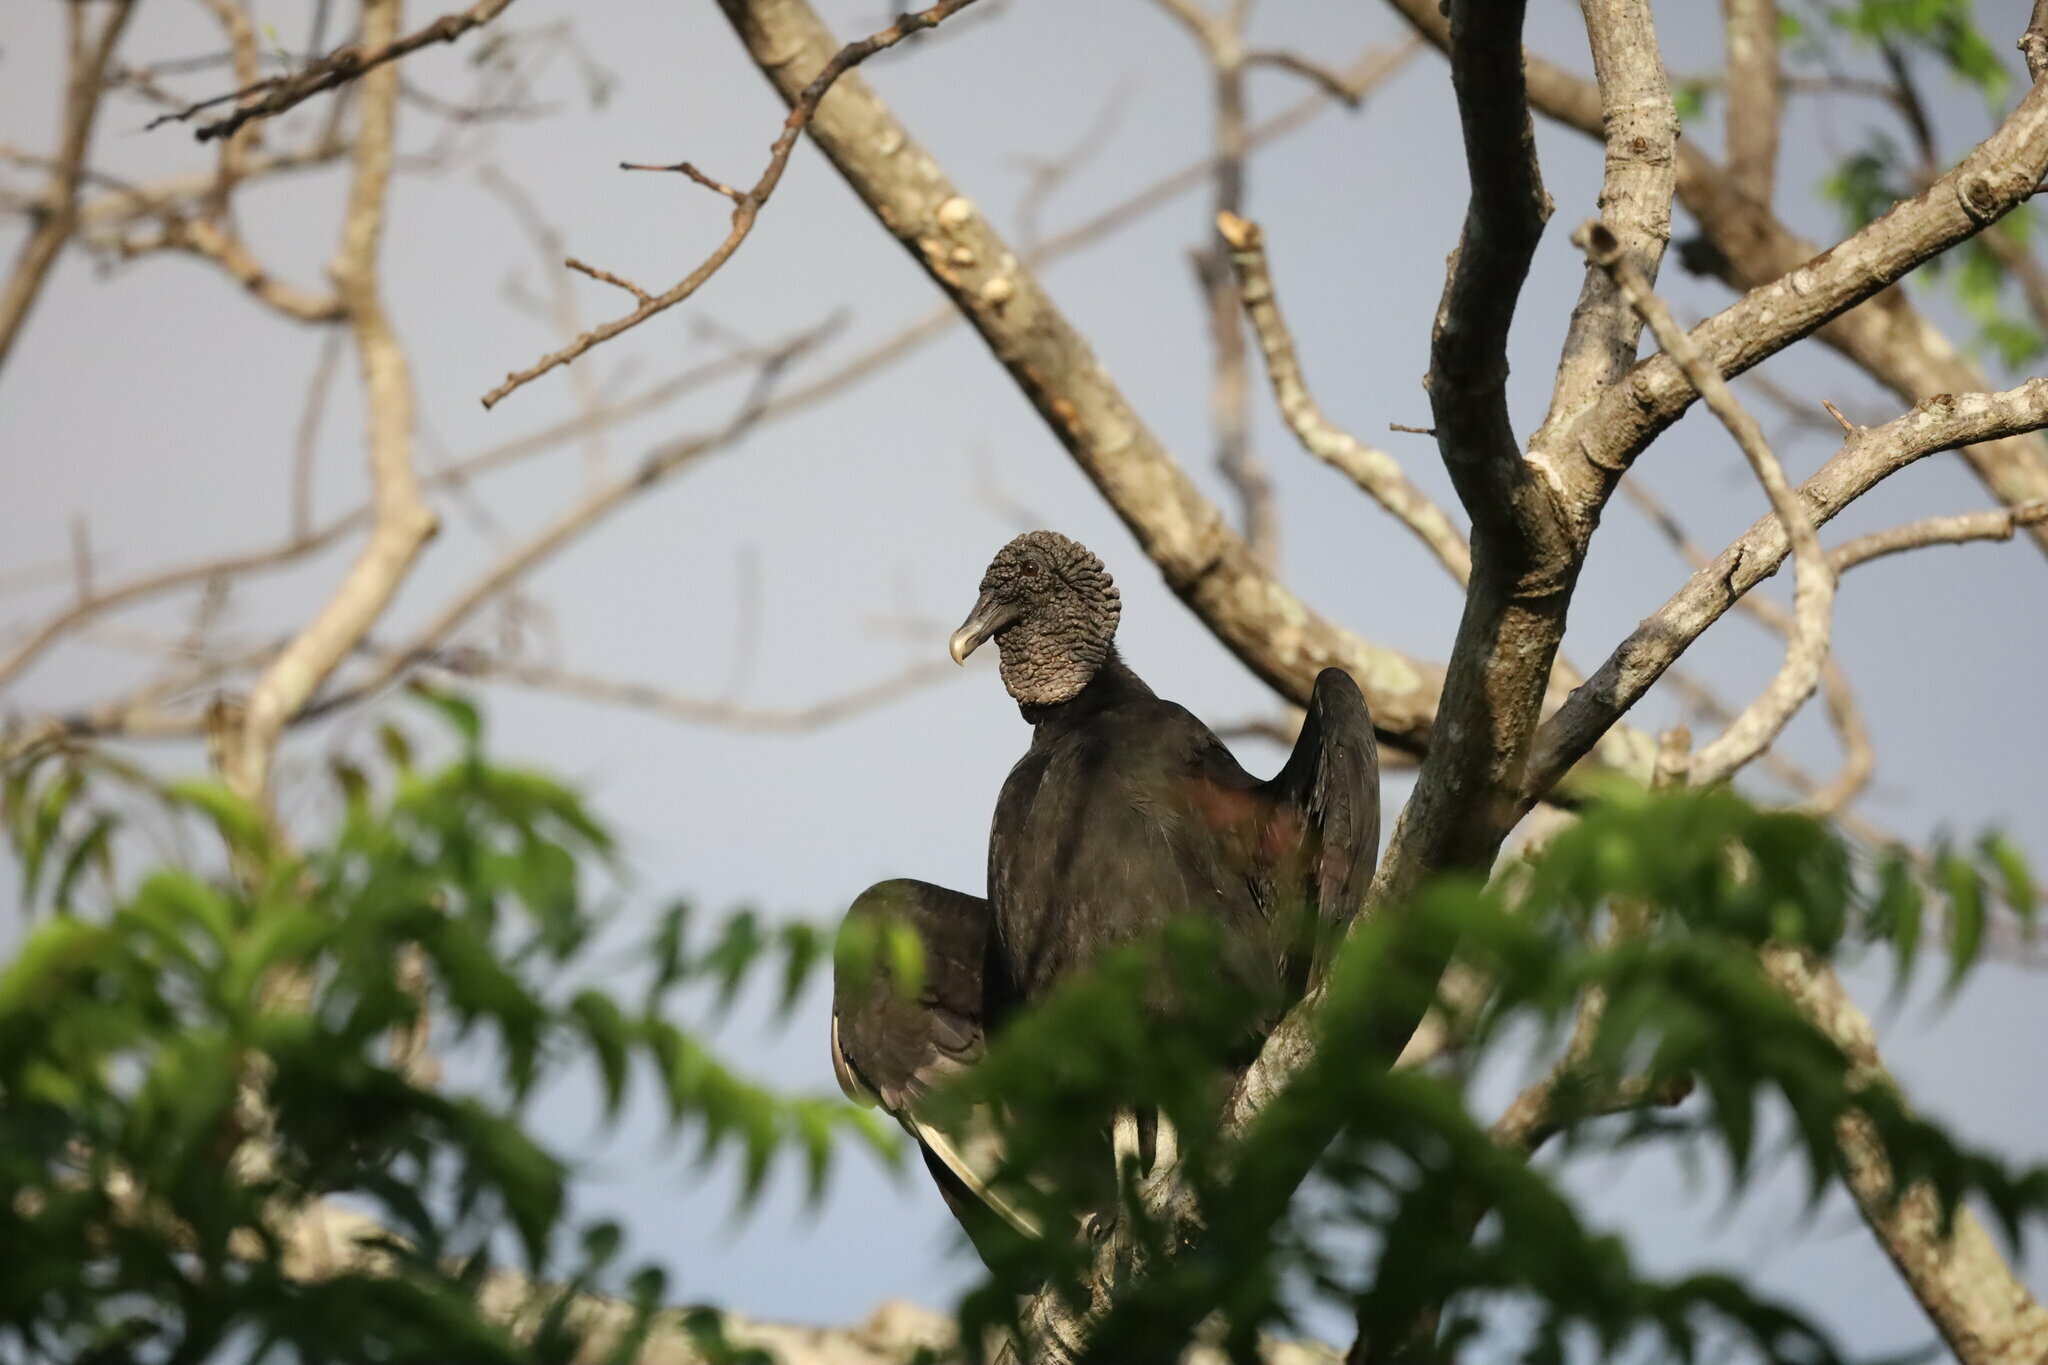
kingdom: Animalia
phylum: Chordata
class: Aves
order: Accipitriformes
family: Cathartidae
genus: Coragyps
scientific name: Coragyps atratus
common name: Black vulture
